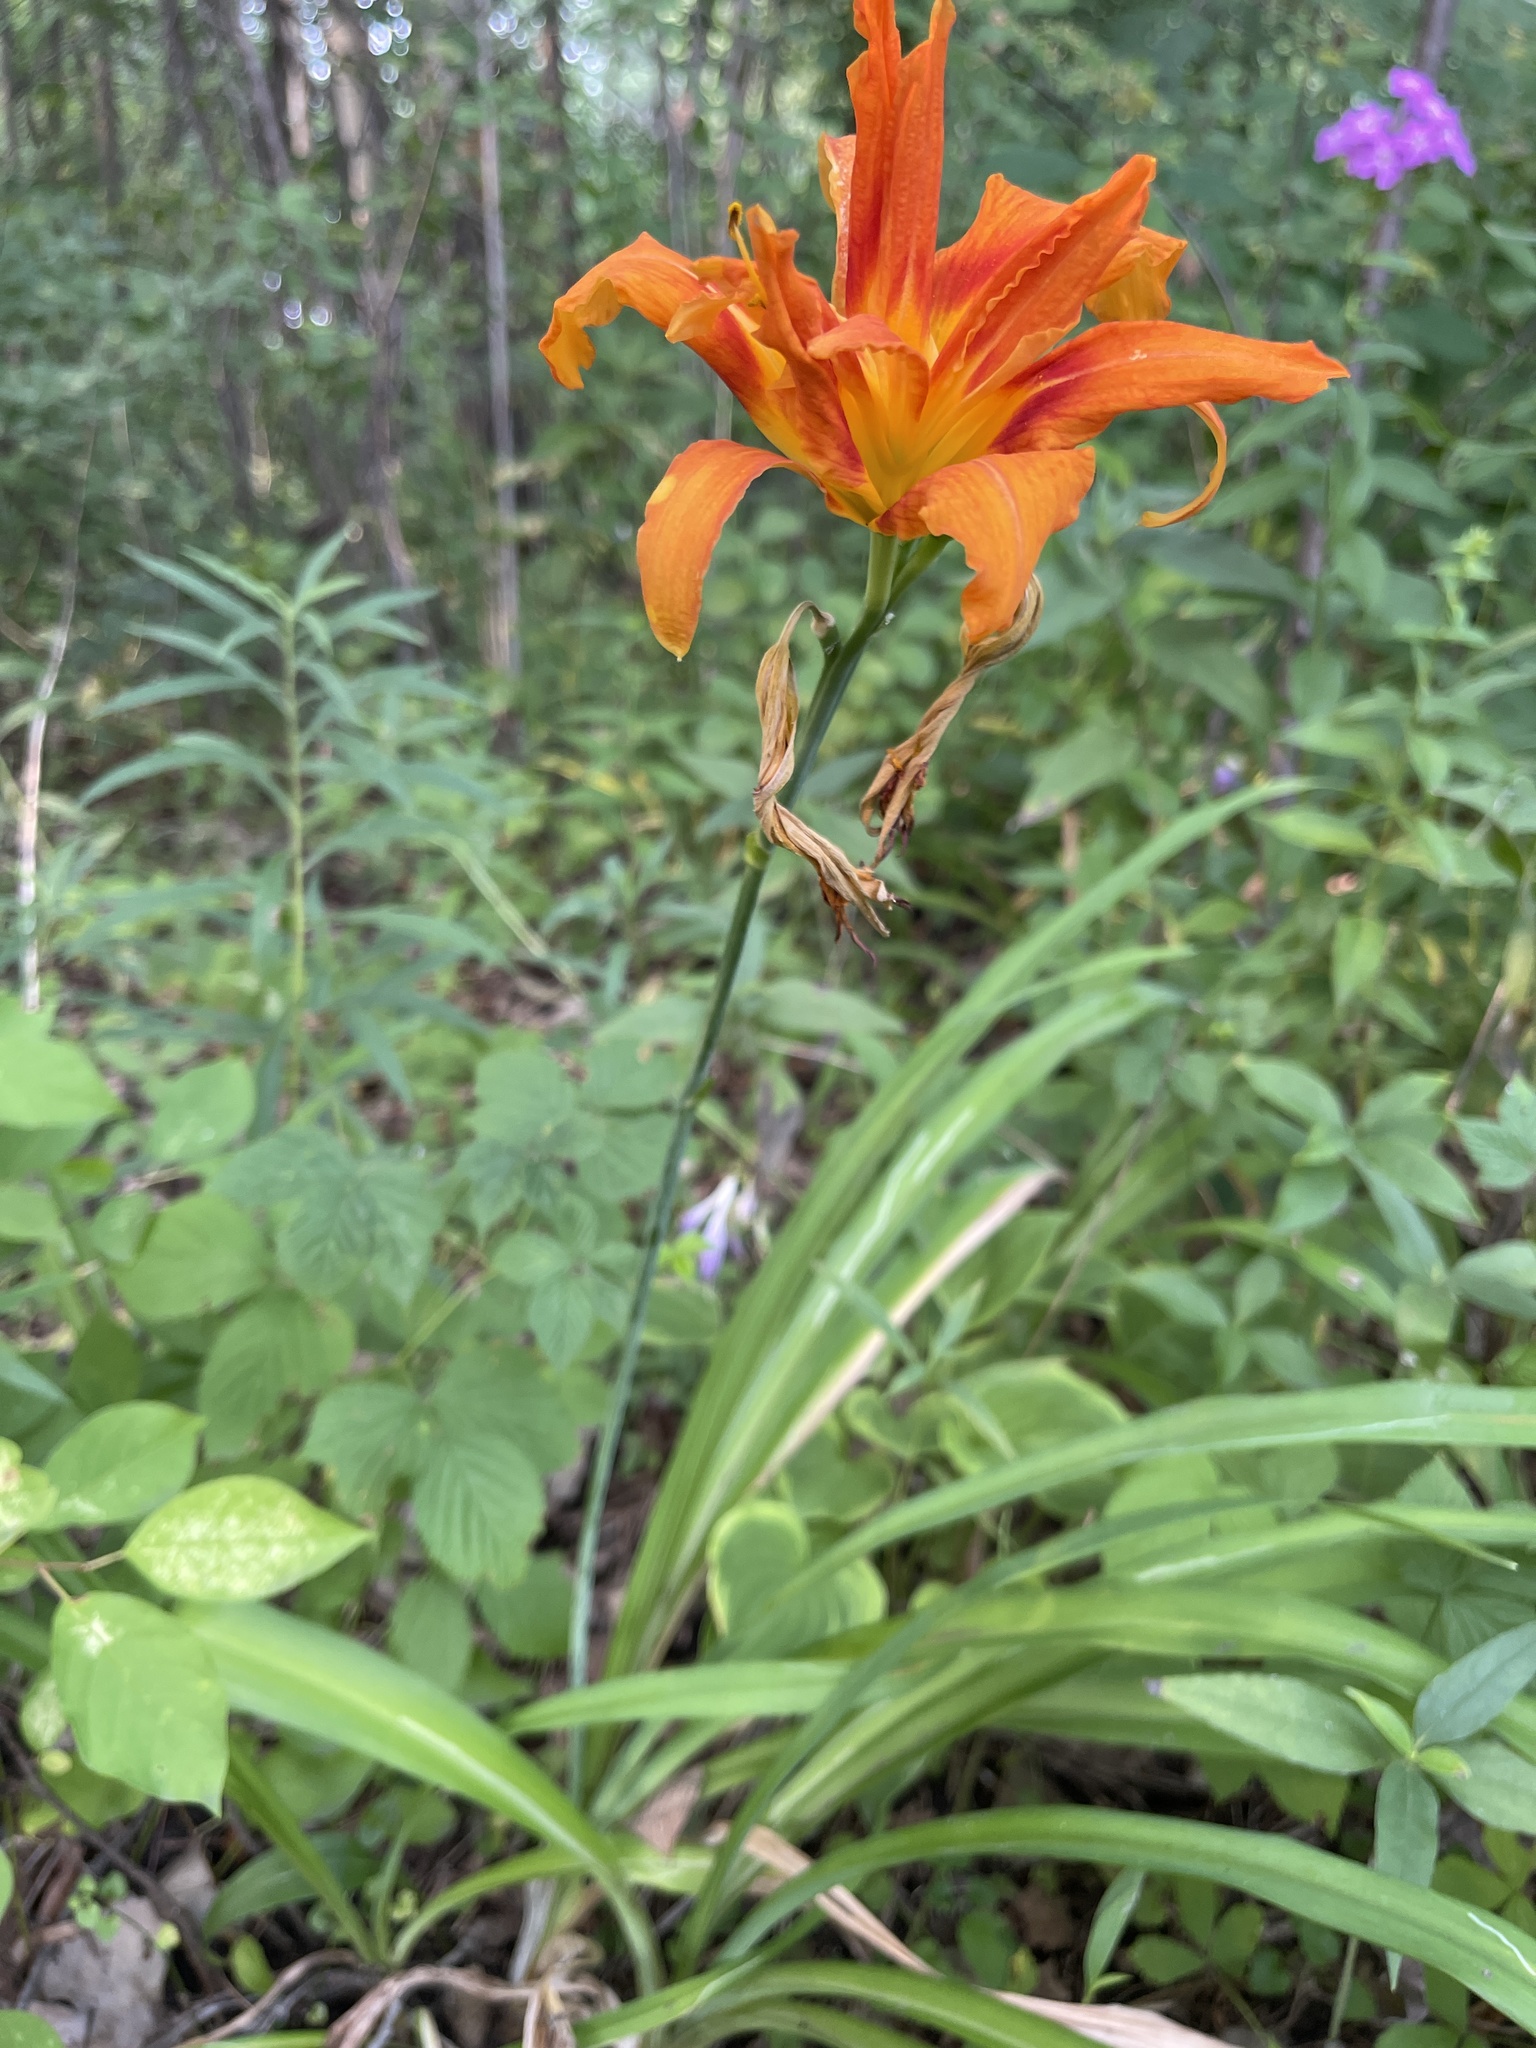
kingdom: Plantae
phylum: Tracheophyta
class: Liliopsida
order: Asparagales
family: Asphodelaceae
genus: Hemerocallis
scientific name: Hemerocallis fulva
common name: Orange day-lily
